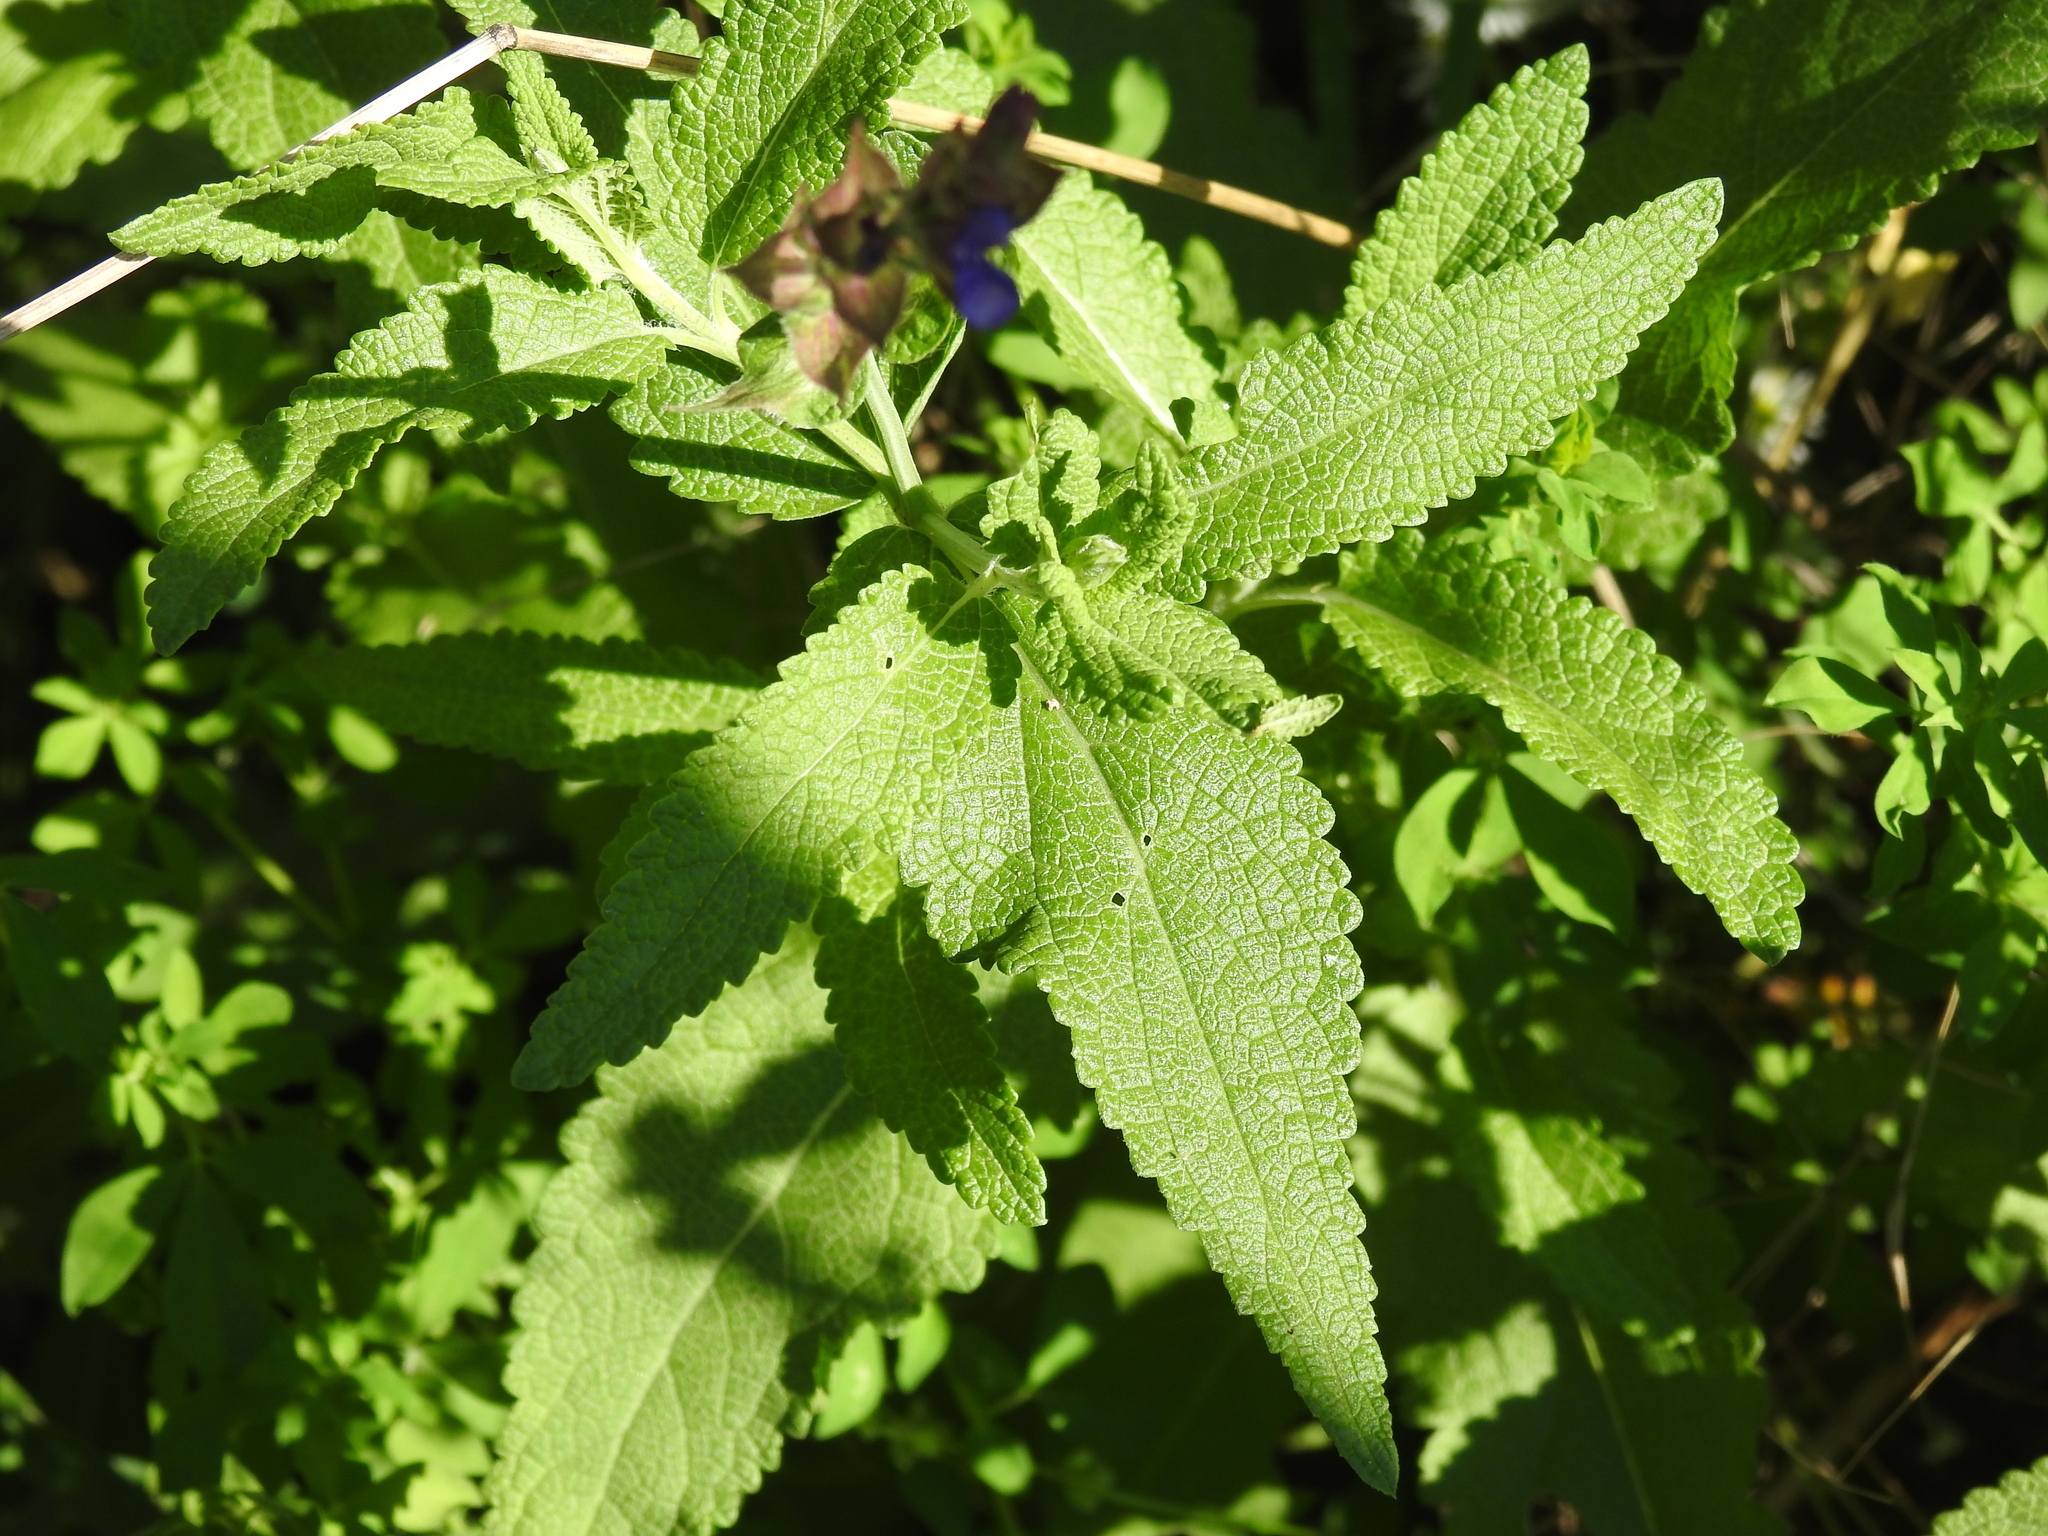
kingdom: Plantae
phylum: Tracheophyta
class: Magnoliopsida
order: Lamiales
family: Lamiaceae
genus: Salvia
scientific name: Salvia nemorosa
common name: Balkan clary
